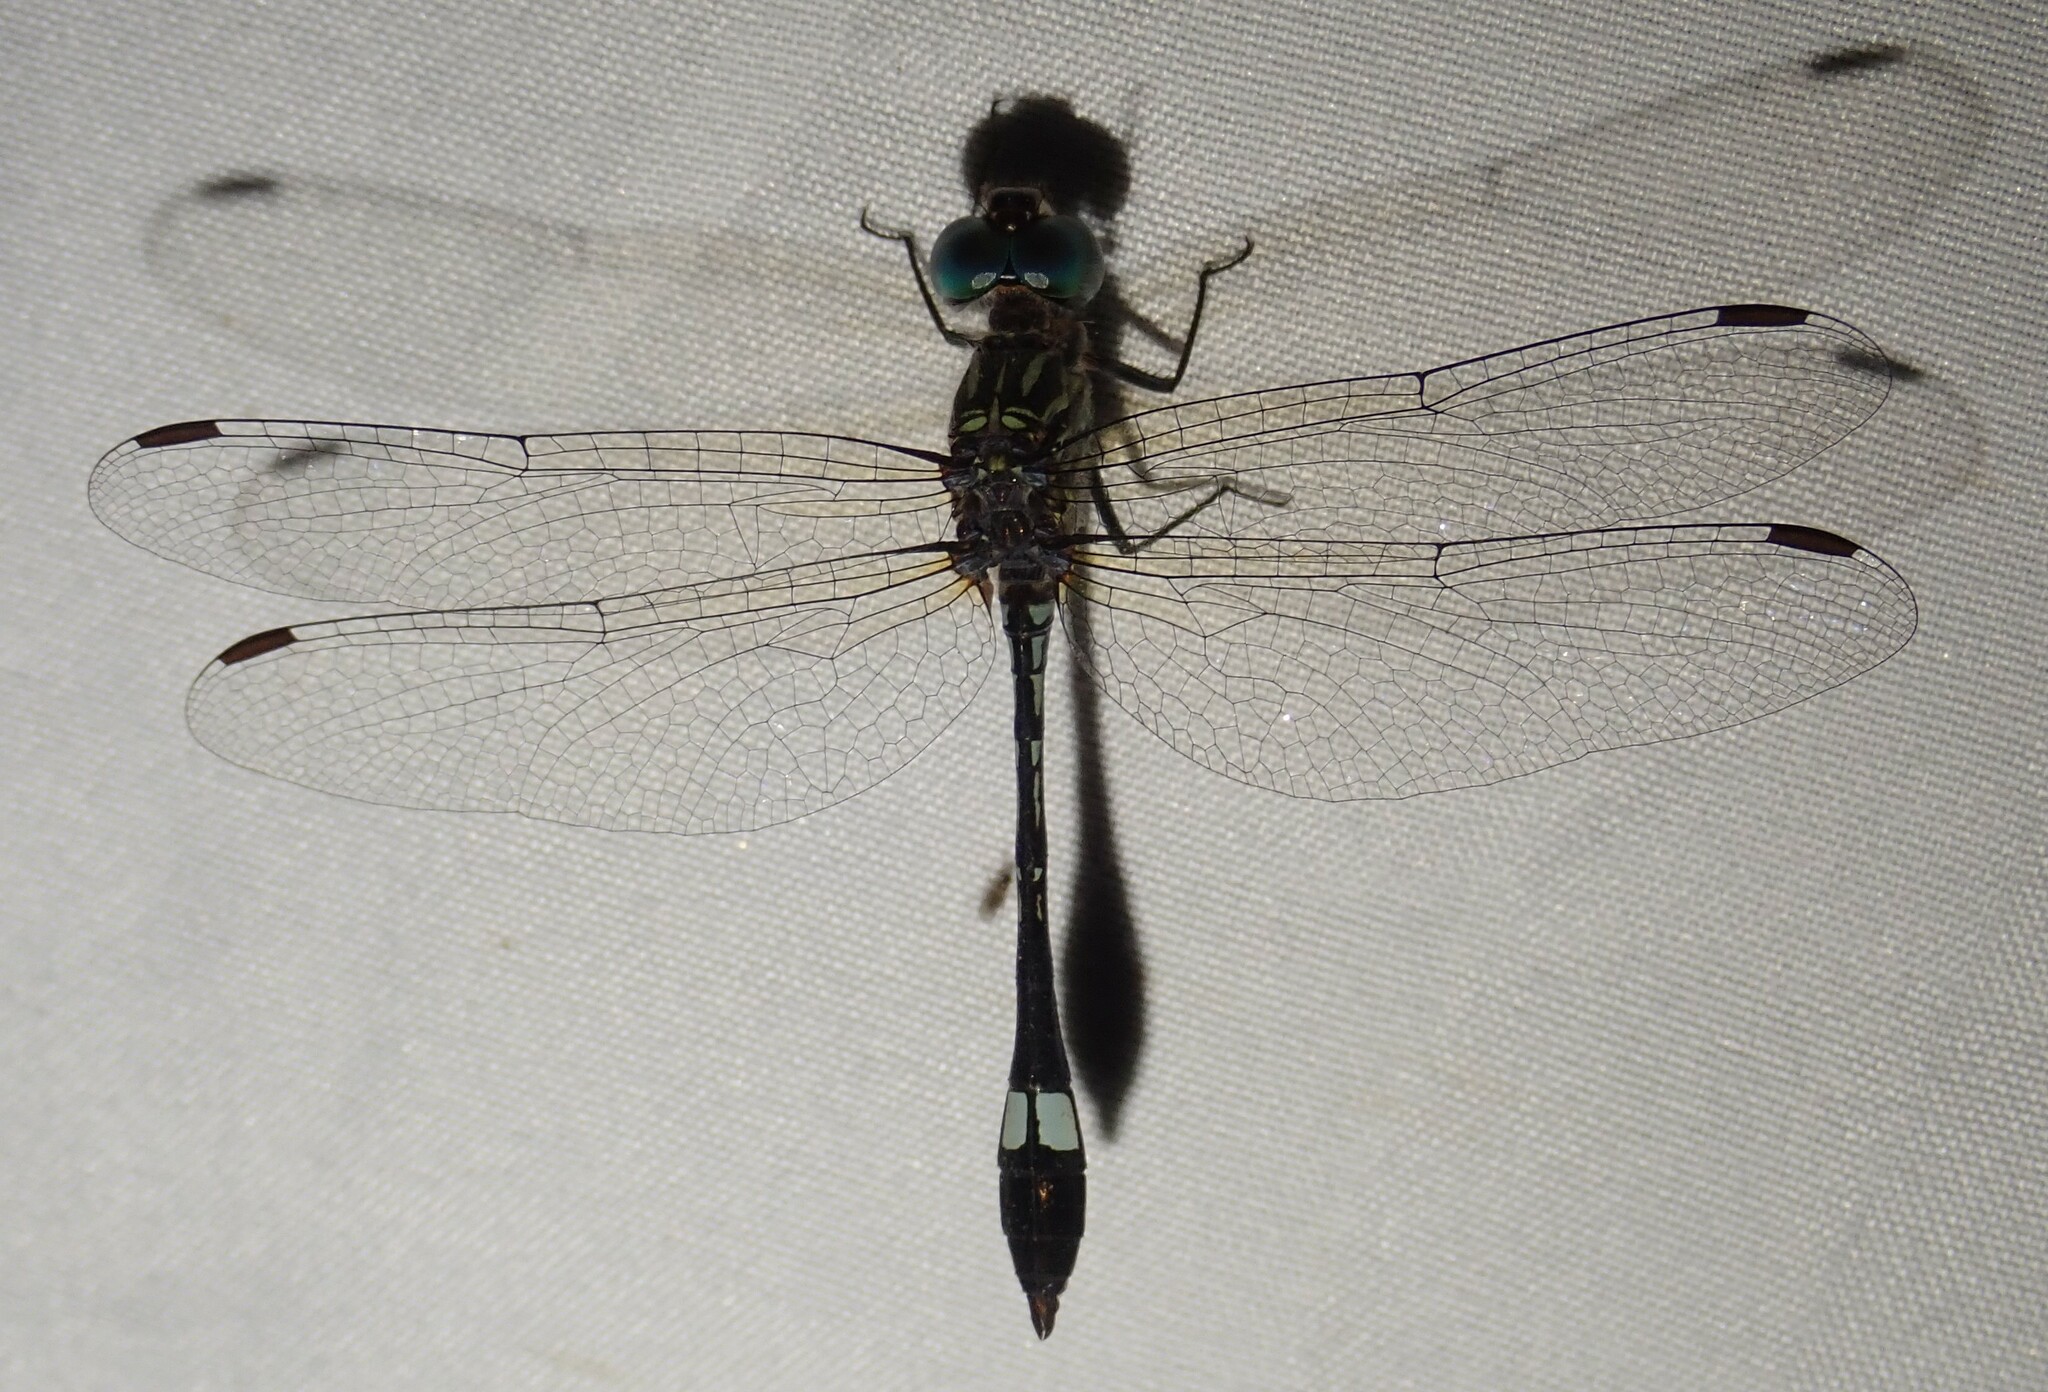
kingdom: Animalia
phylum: Arthropoda
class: Insecta
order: Odonata
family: Libellulidae
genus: Micrathyria
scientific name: Micrathyria ocellata
